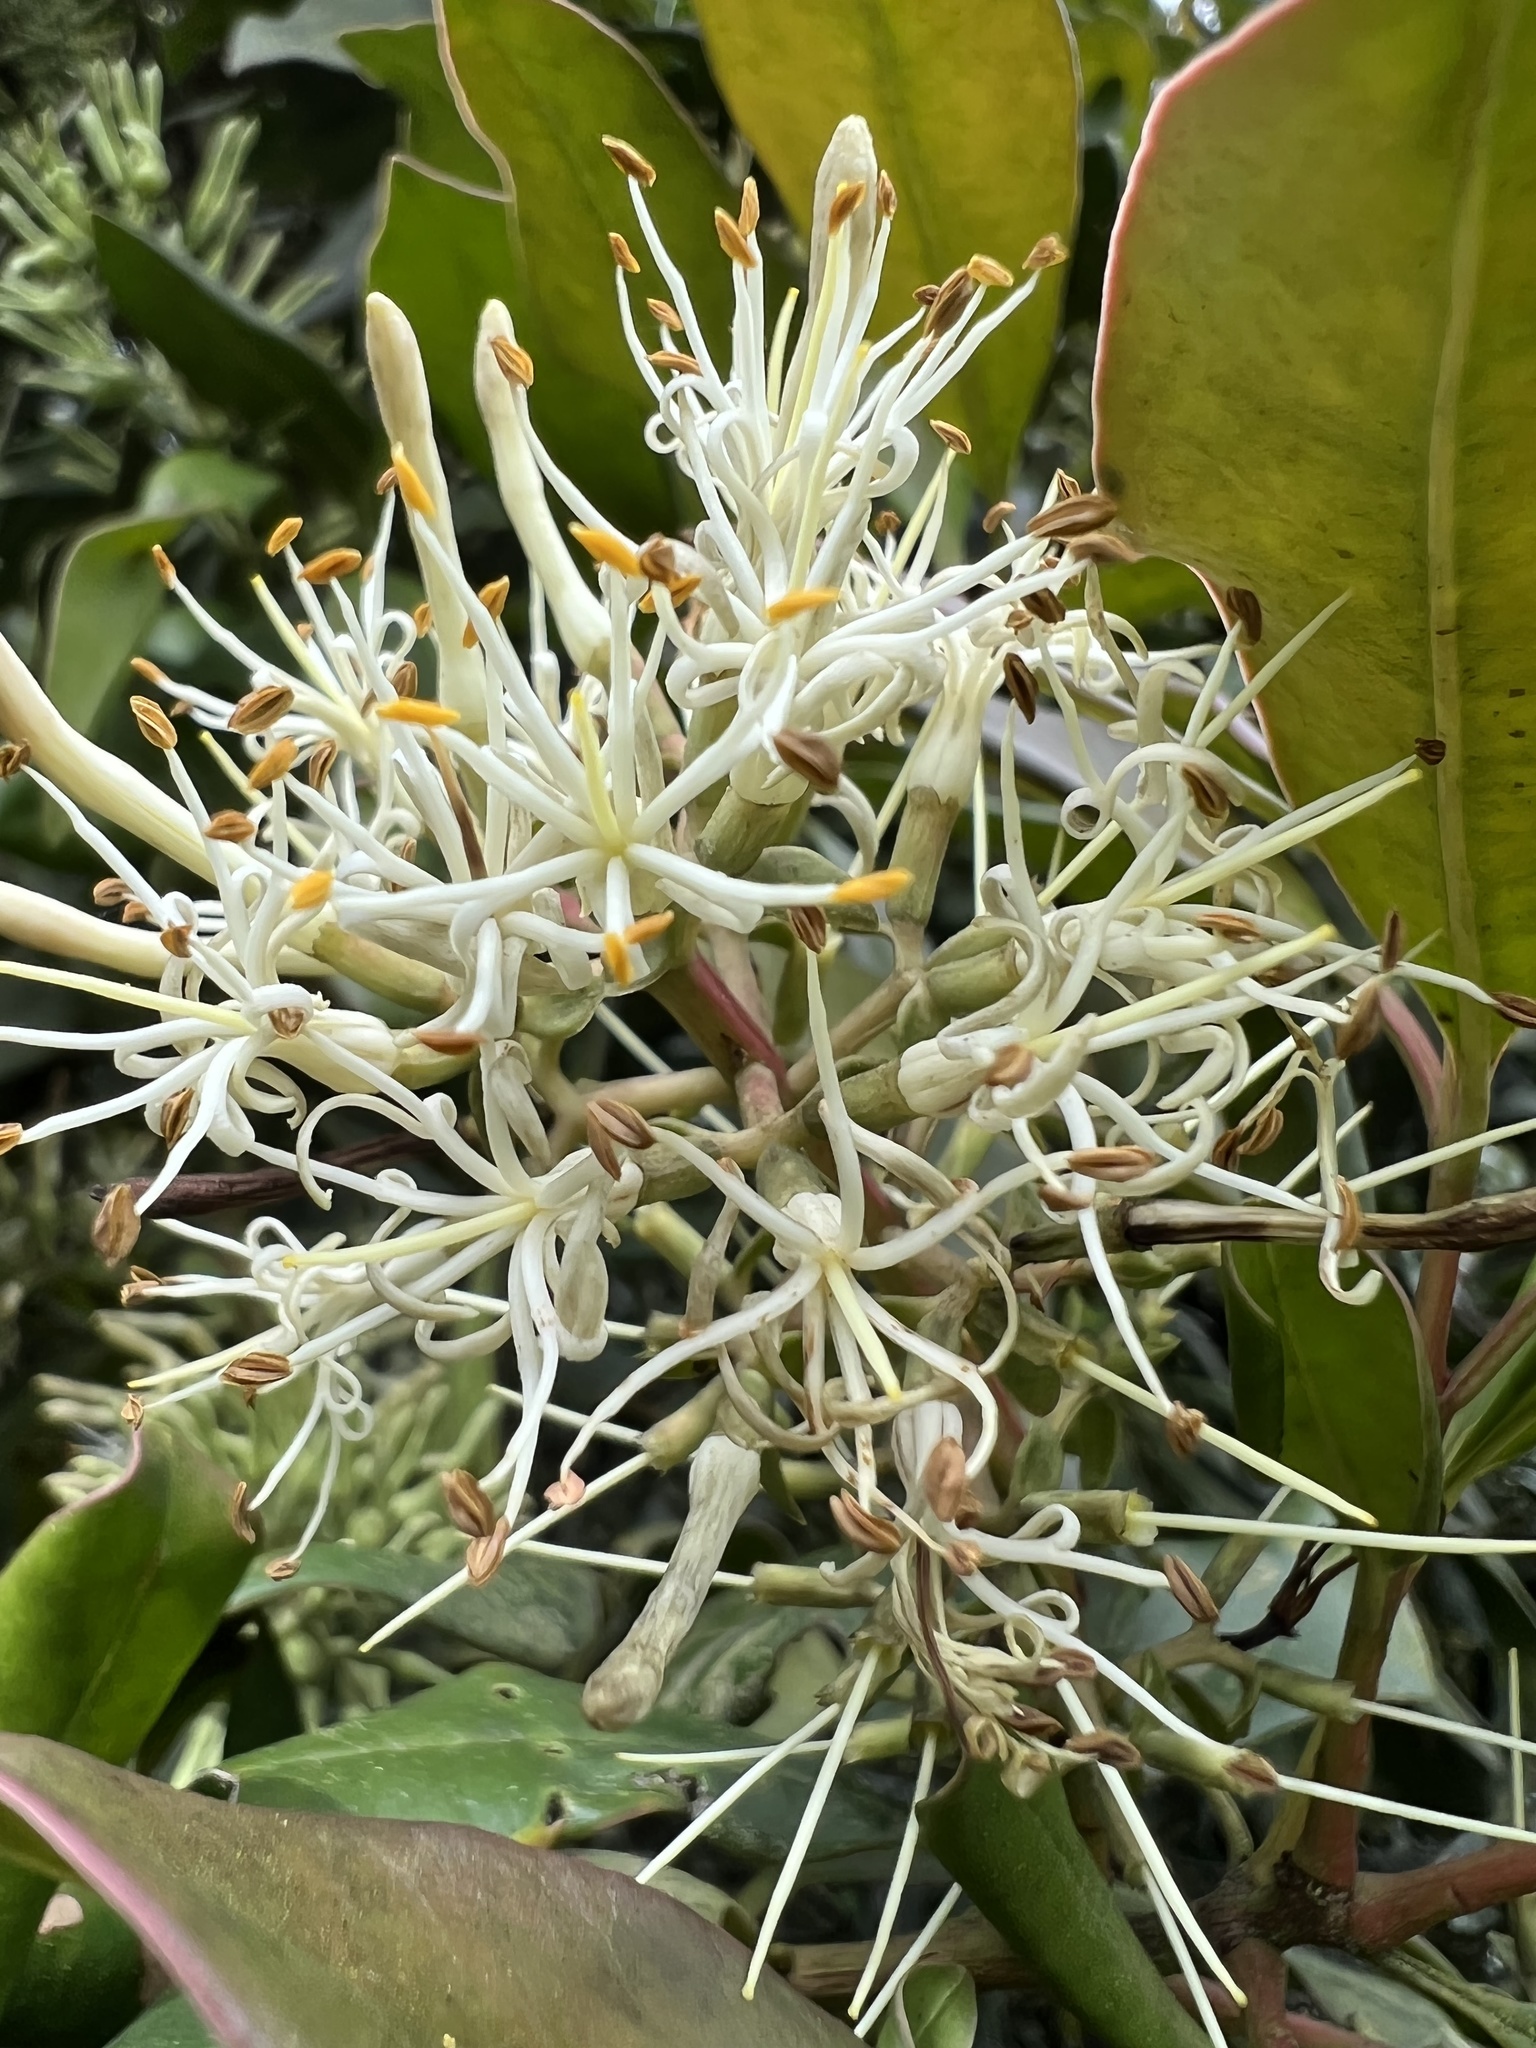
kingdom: Plantae
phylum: Tracheophyta
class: Magnoliopsida
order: Santalales
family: Loranthaceae
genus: Gaiadendron
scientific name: Gaiadendron punctatum
